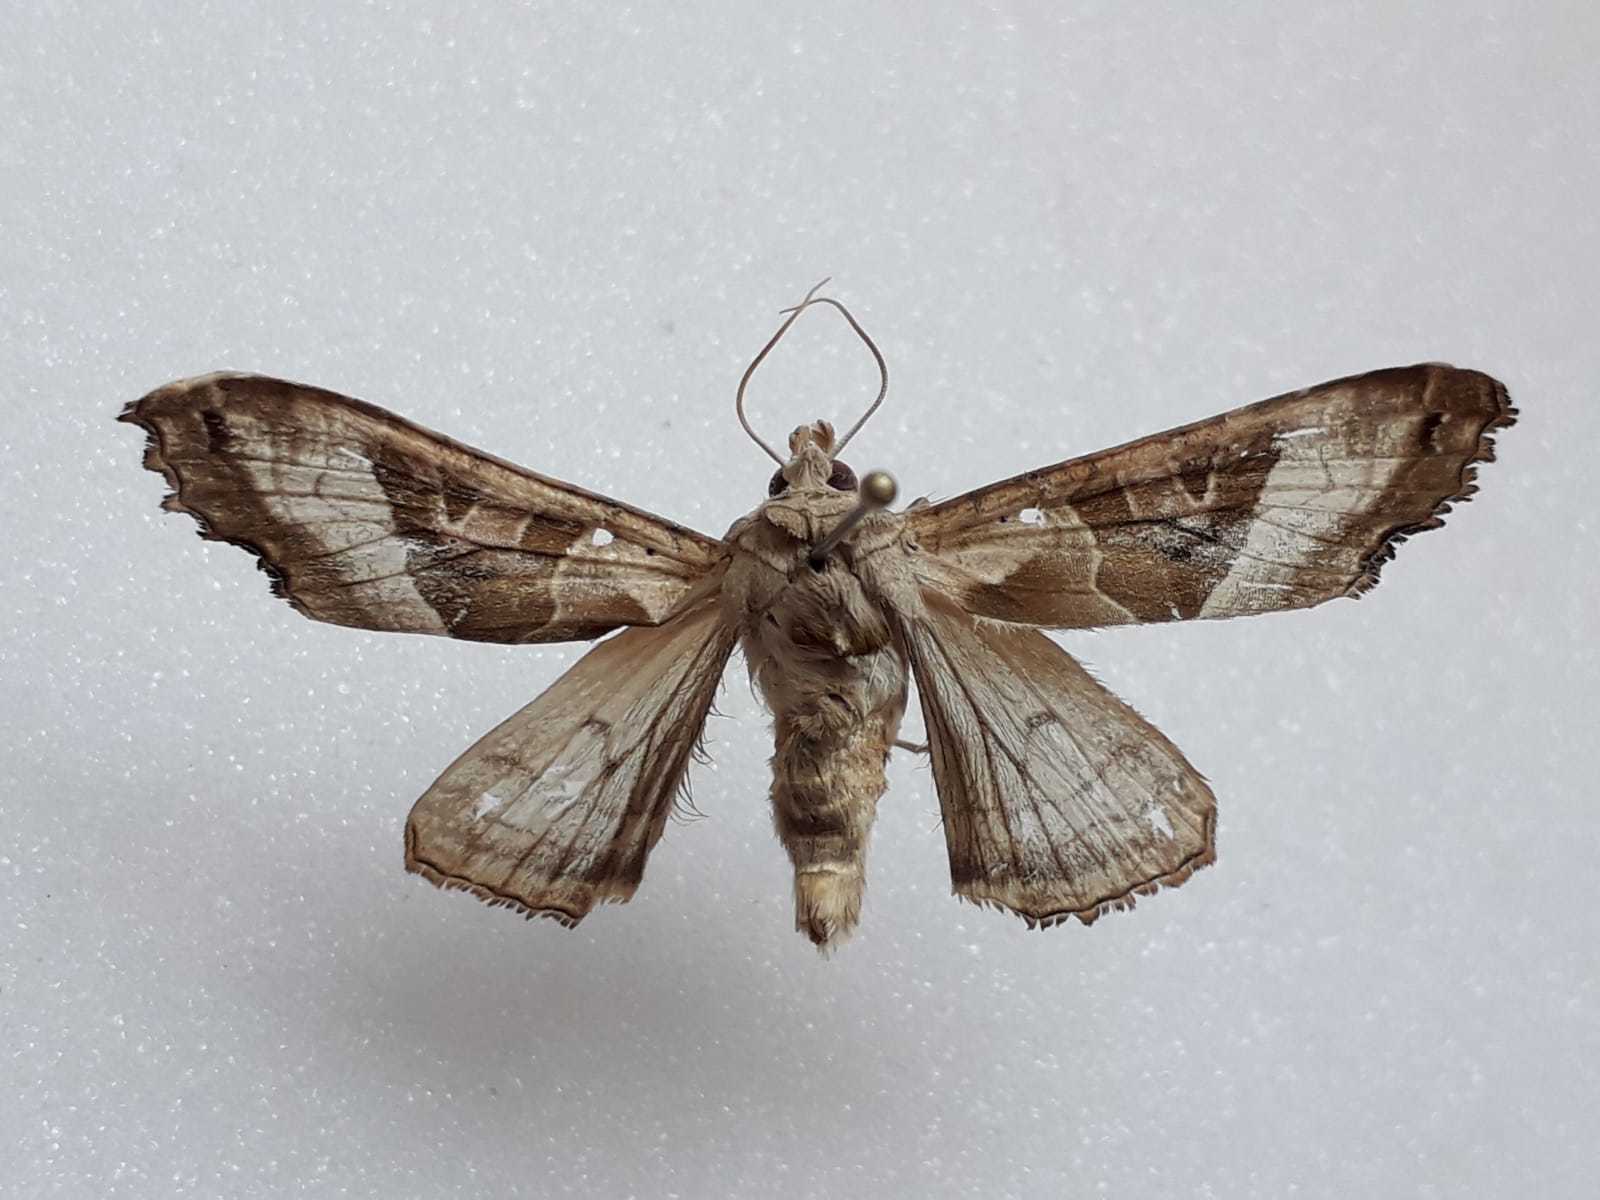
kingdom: Animalia
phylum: Arthropoda
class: Insecta
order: Lepidoptera
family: Noctuidae
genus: Phlogophora
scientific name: Phlogophora meticulosa
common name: Angle shades
